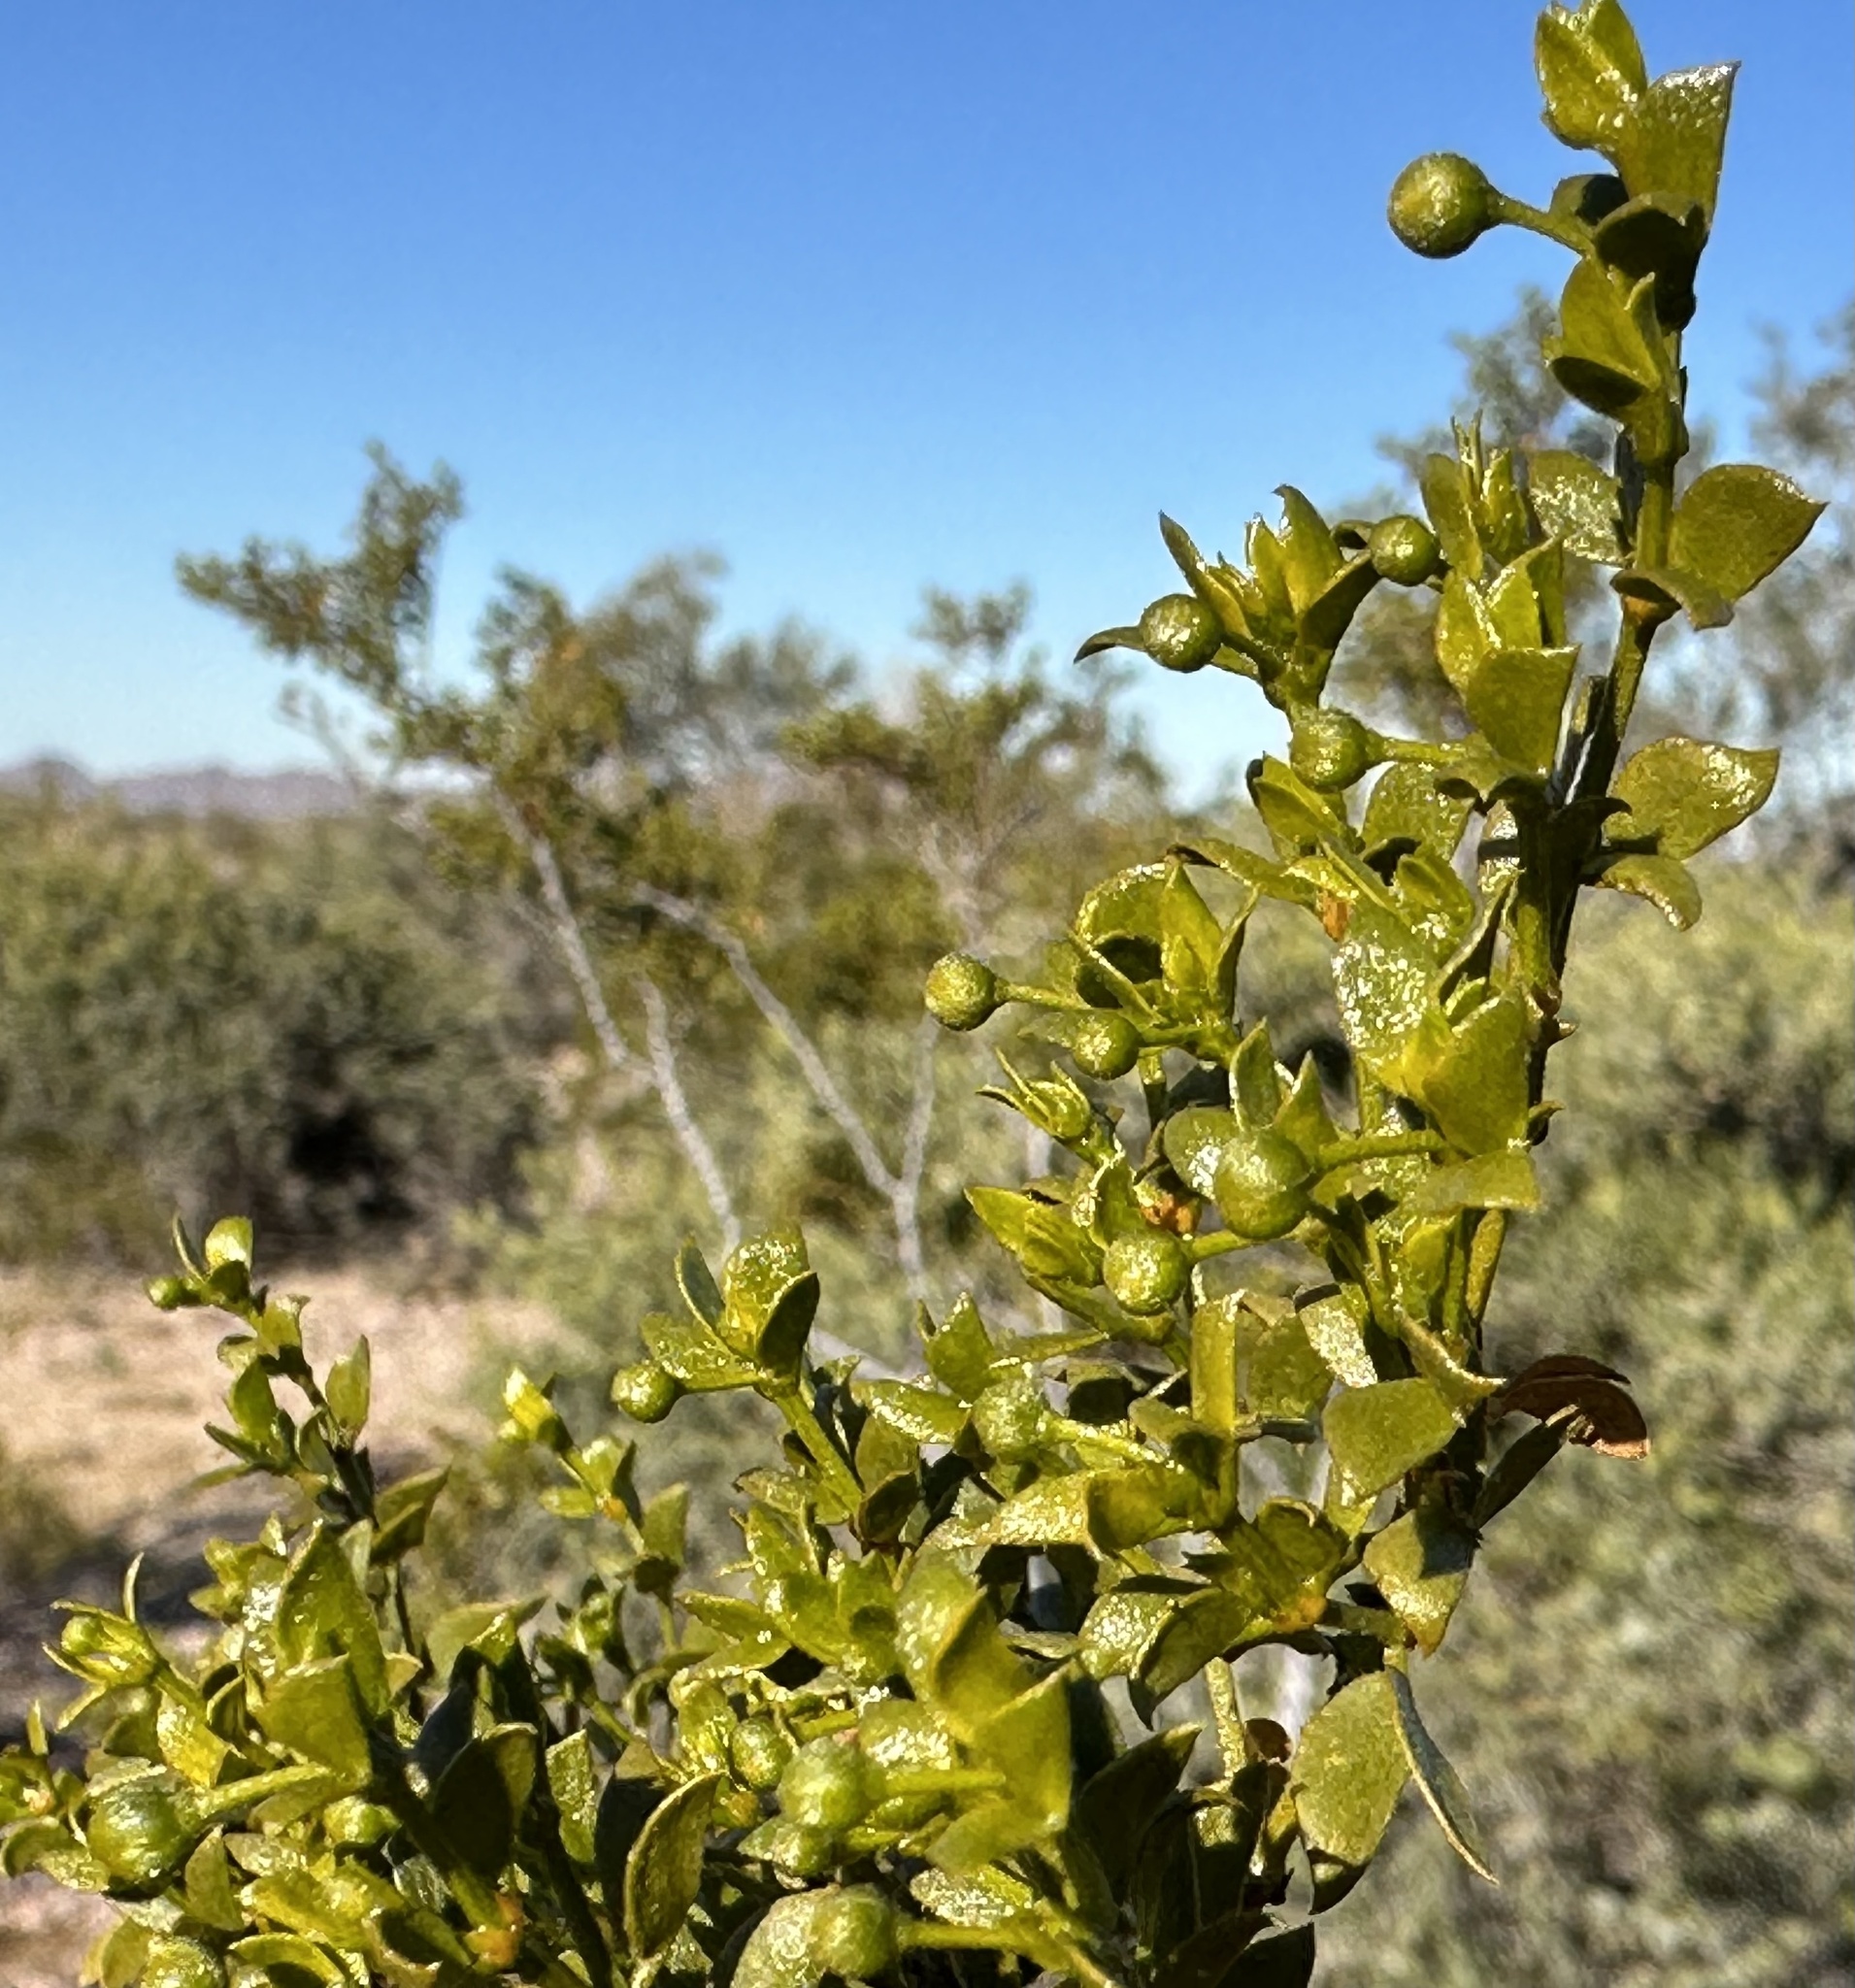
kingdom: Plantae
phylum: Tracheophyta
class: Magnoliopsida
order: Zygophyllales
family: Zygophyllaceae
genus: Larrea
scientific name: Larrea tridentata
